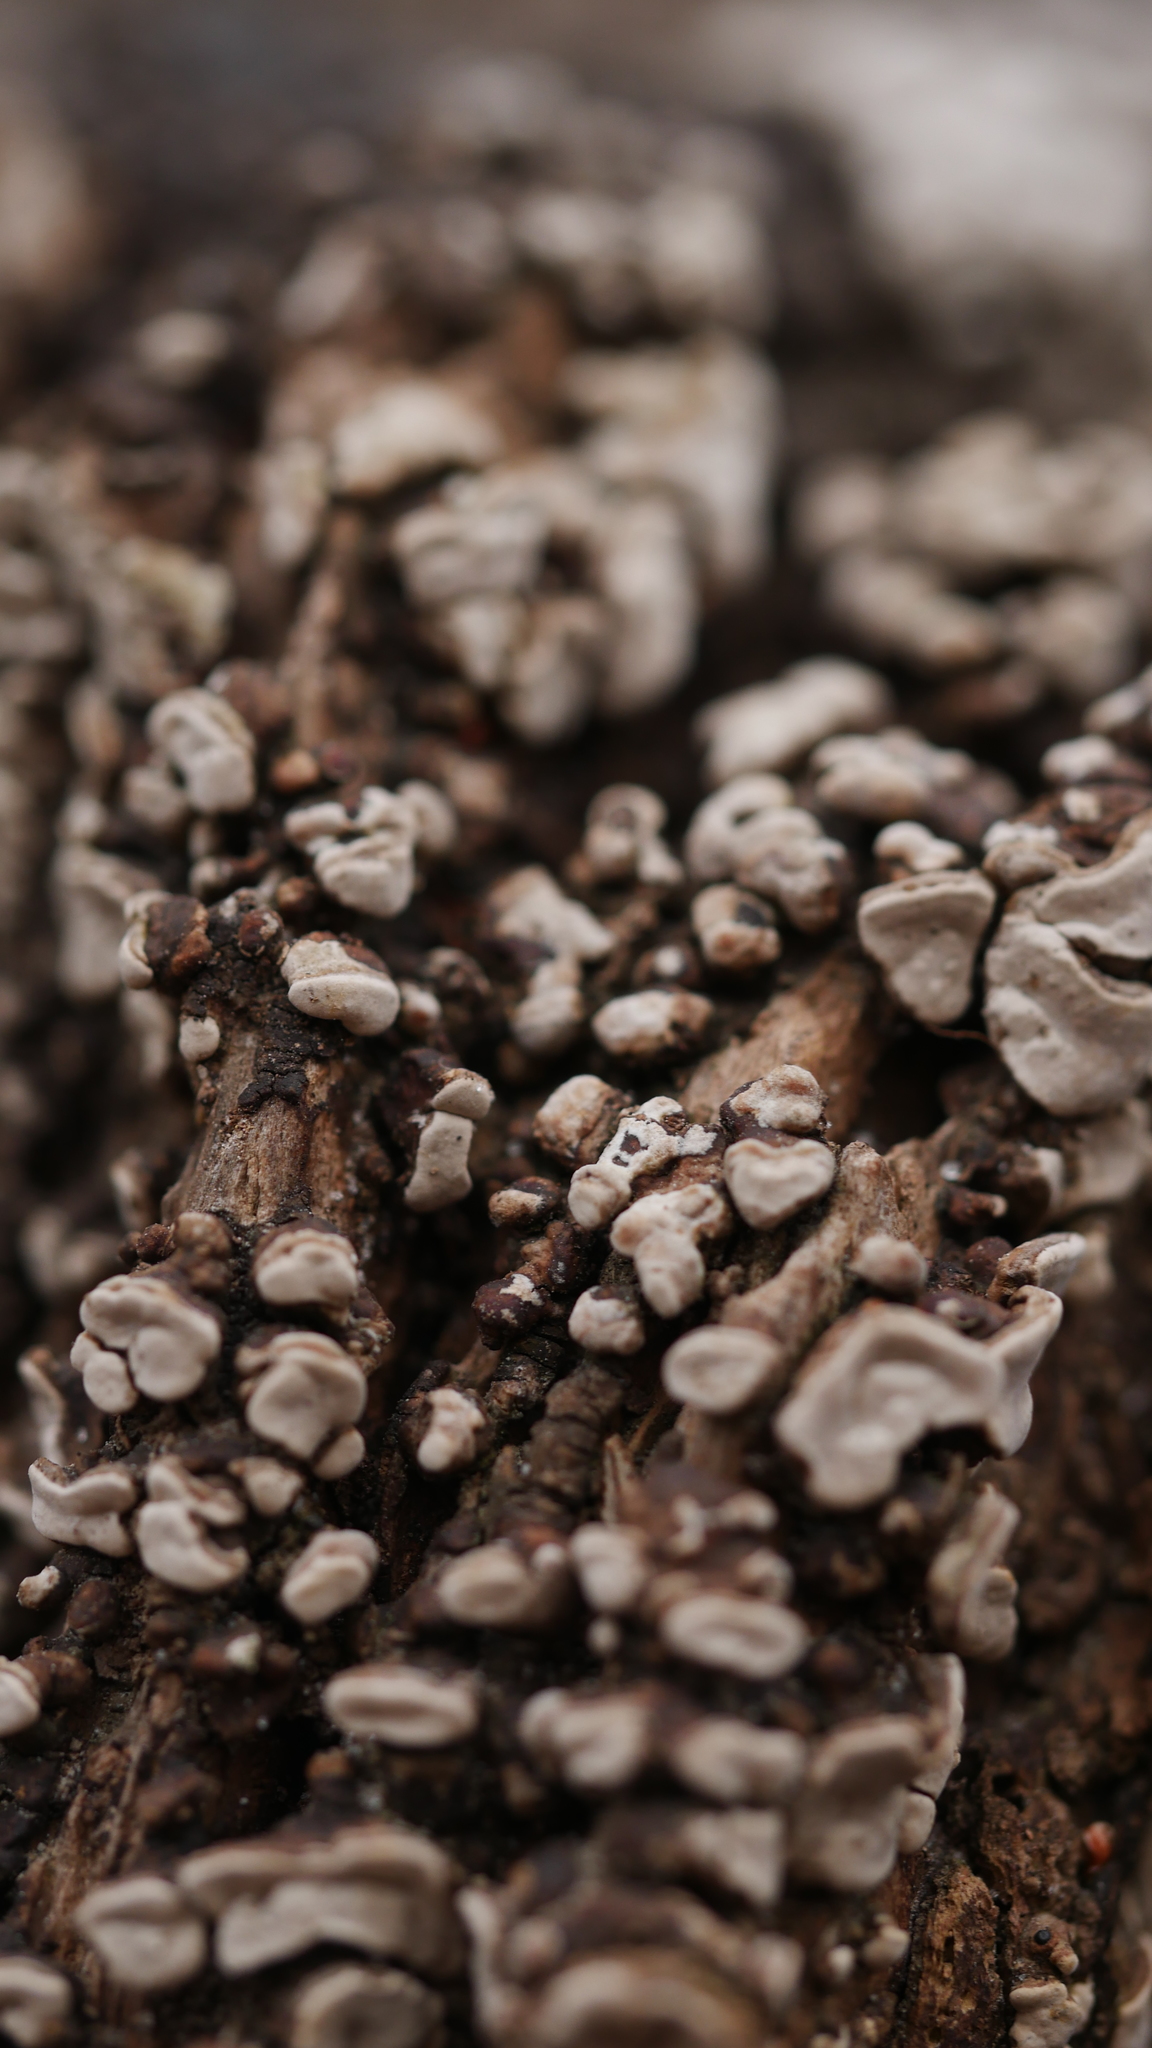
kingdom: Fungi
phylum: Basidiomycota
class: Agaricomycetes
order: Russulales
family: Stereaceae
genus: Xylobolus
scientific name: Xylobolus frustulatus
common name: Ceramic parchment
